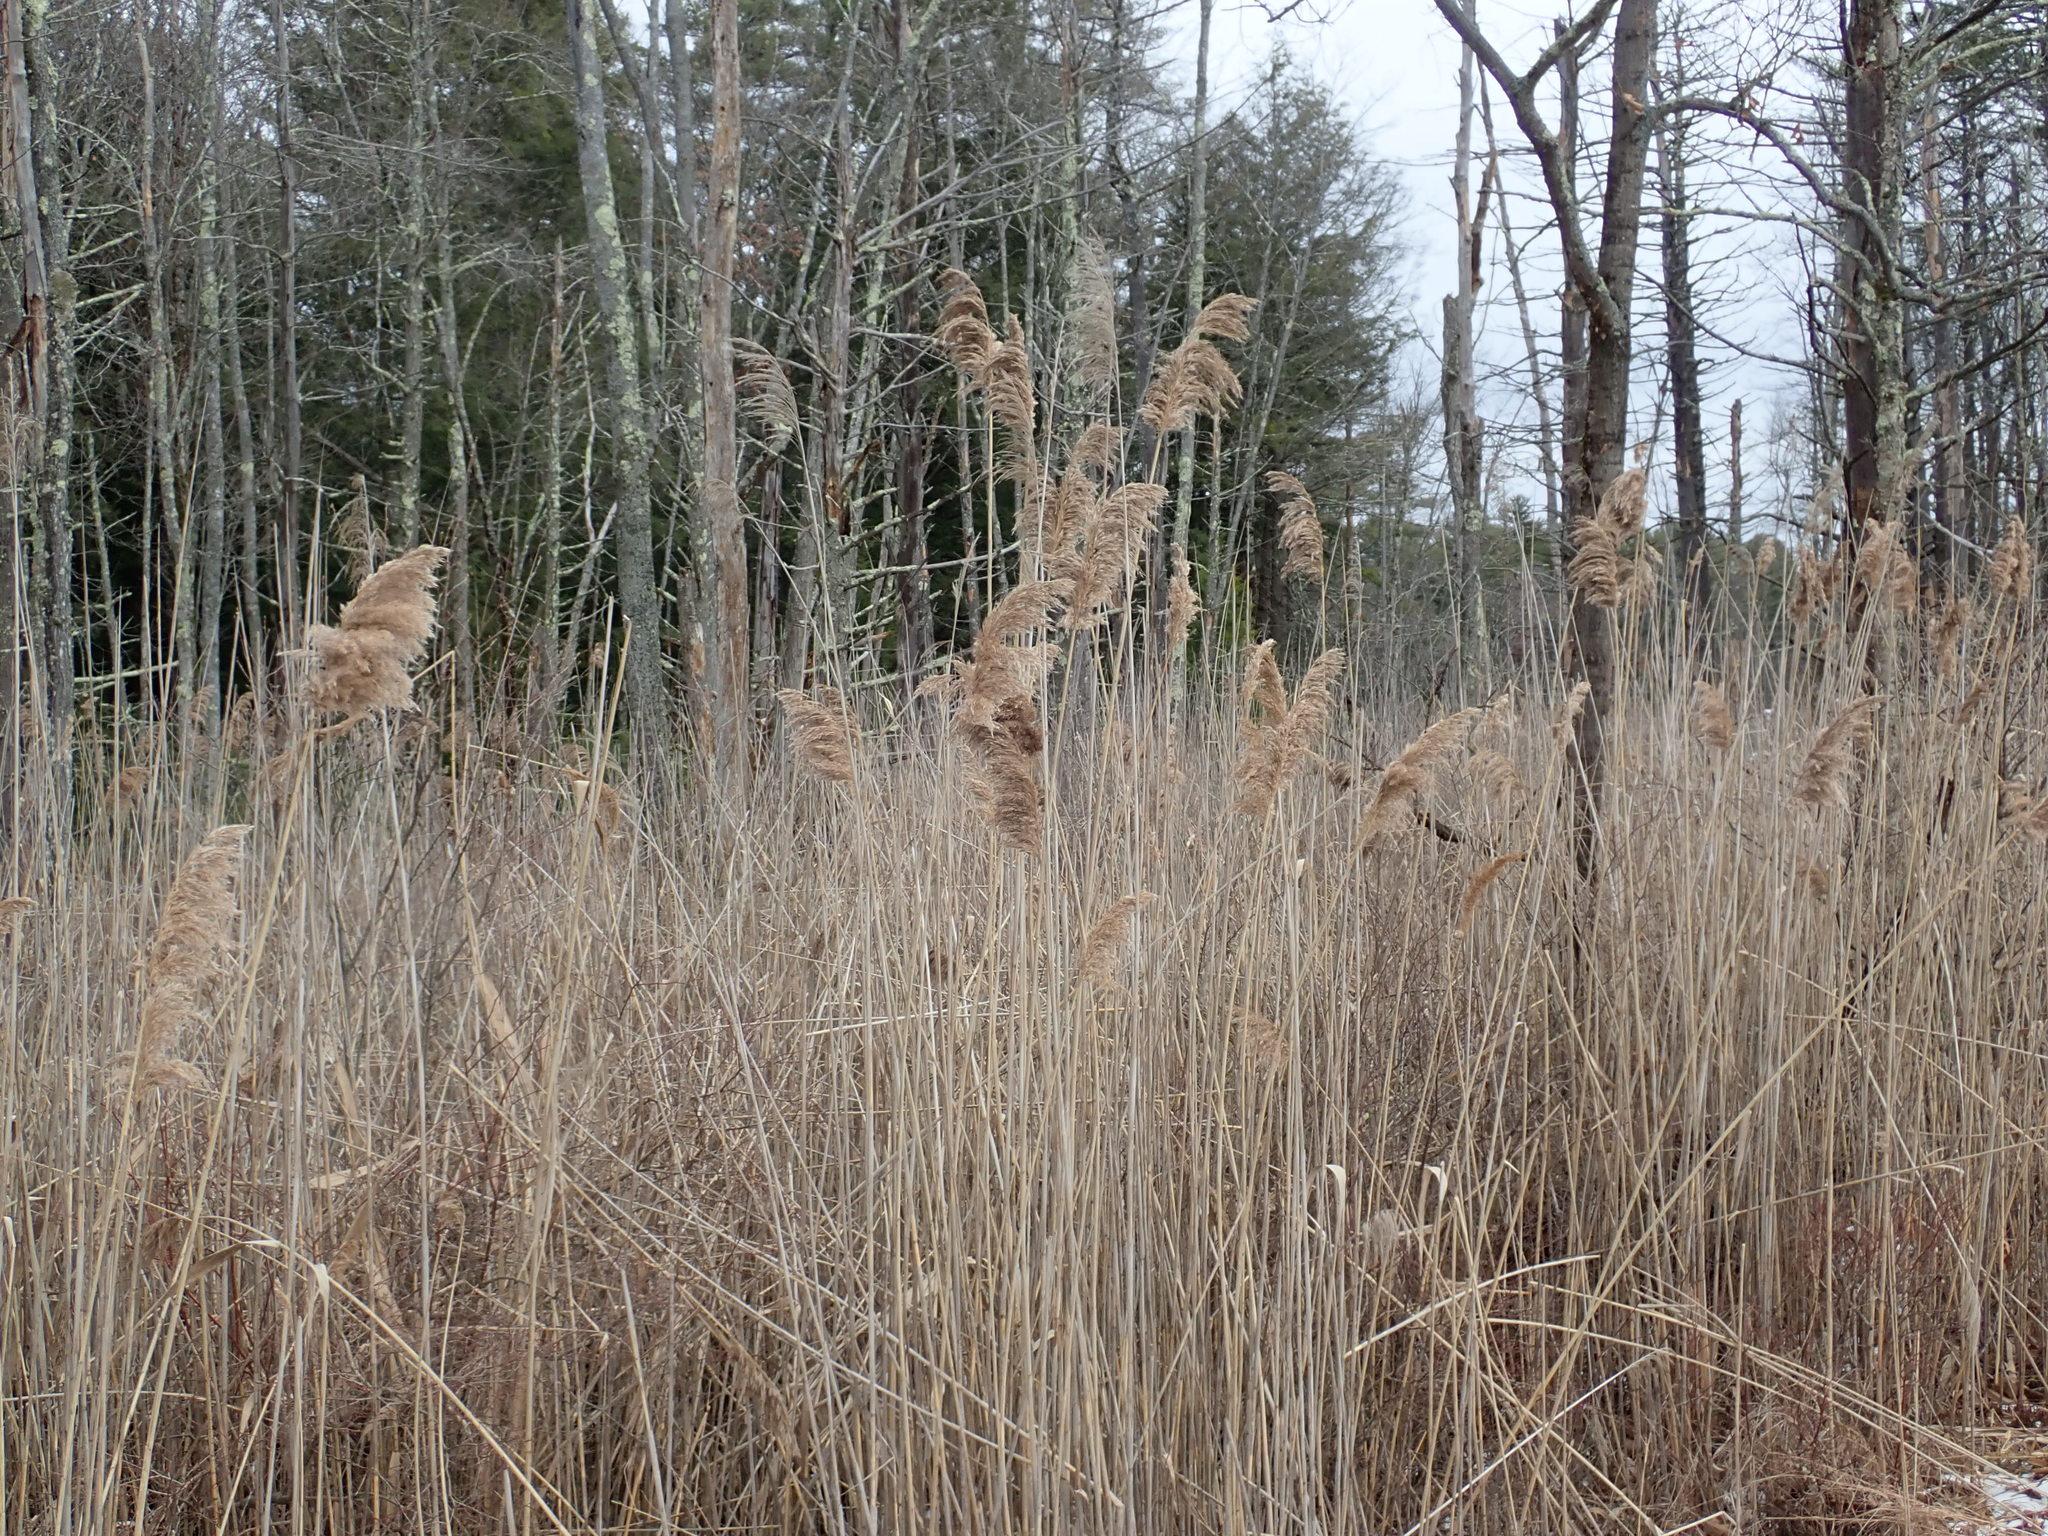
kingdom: Plantae
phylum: Tracheophyta
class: Liliopsida
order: Poales
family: Poaceae
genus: Phragmites
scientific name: Phragmites australis
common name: Common reed
